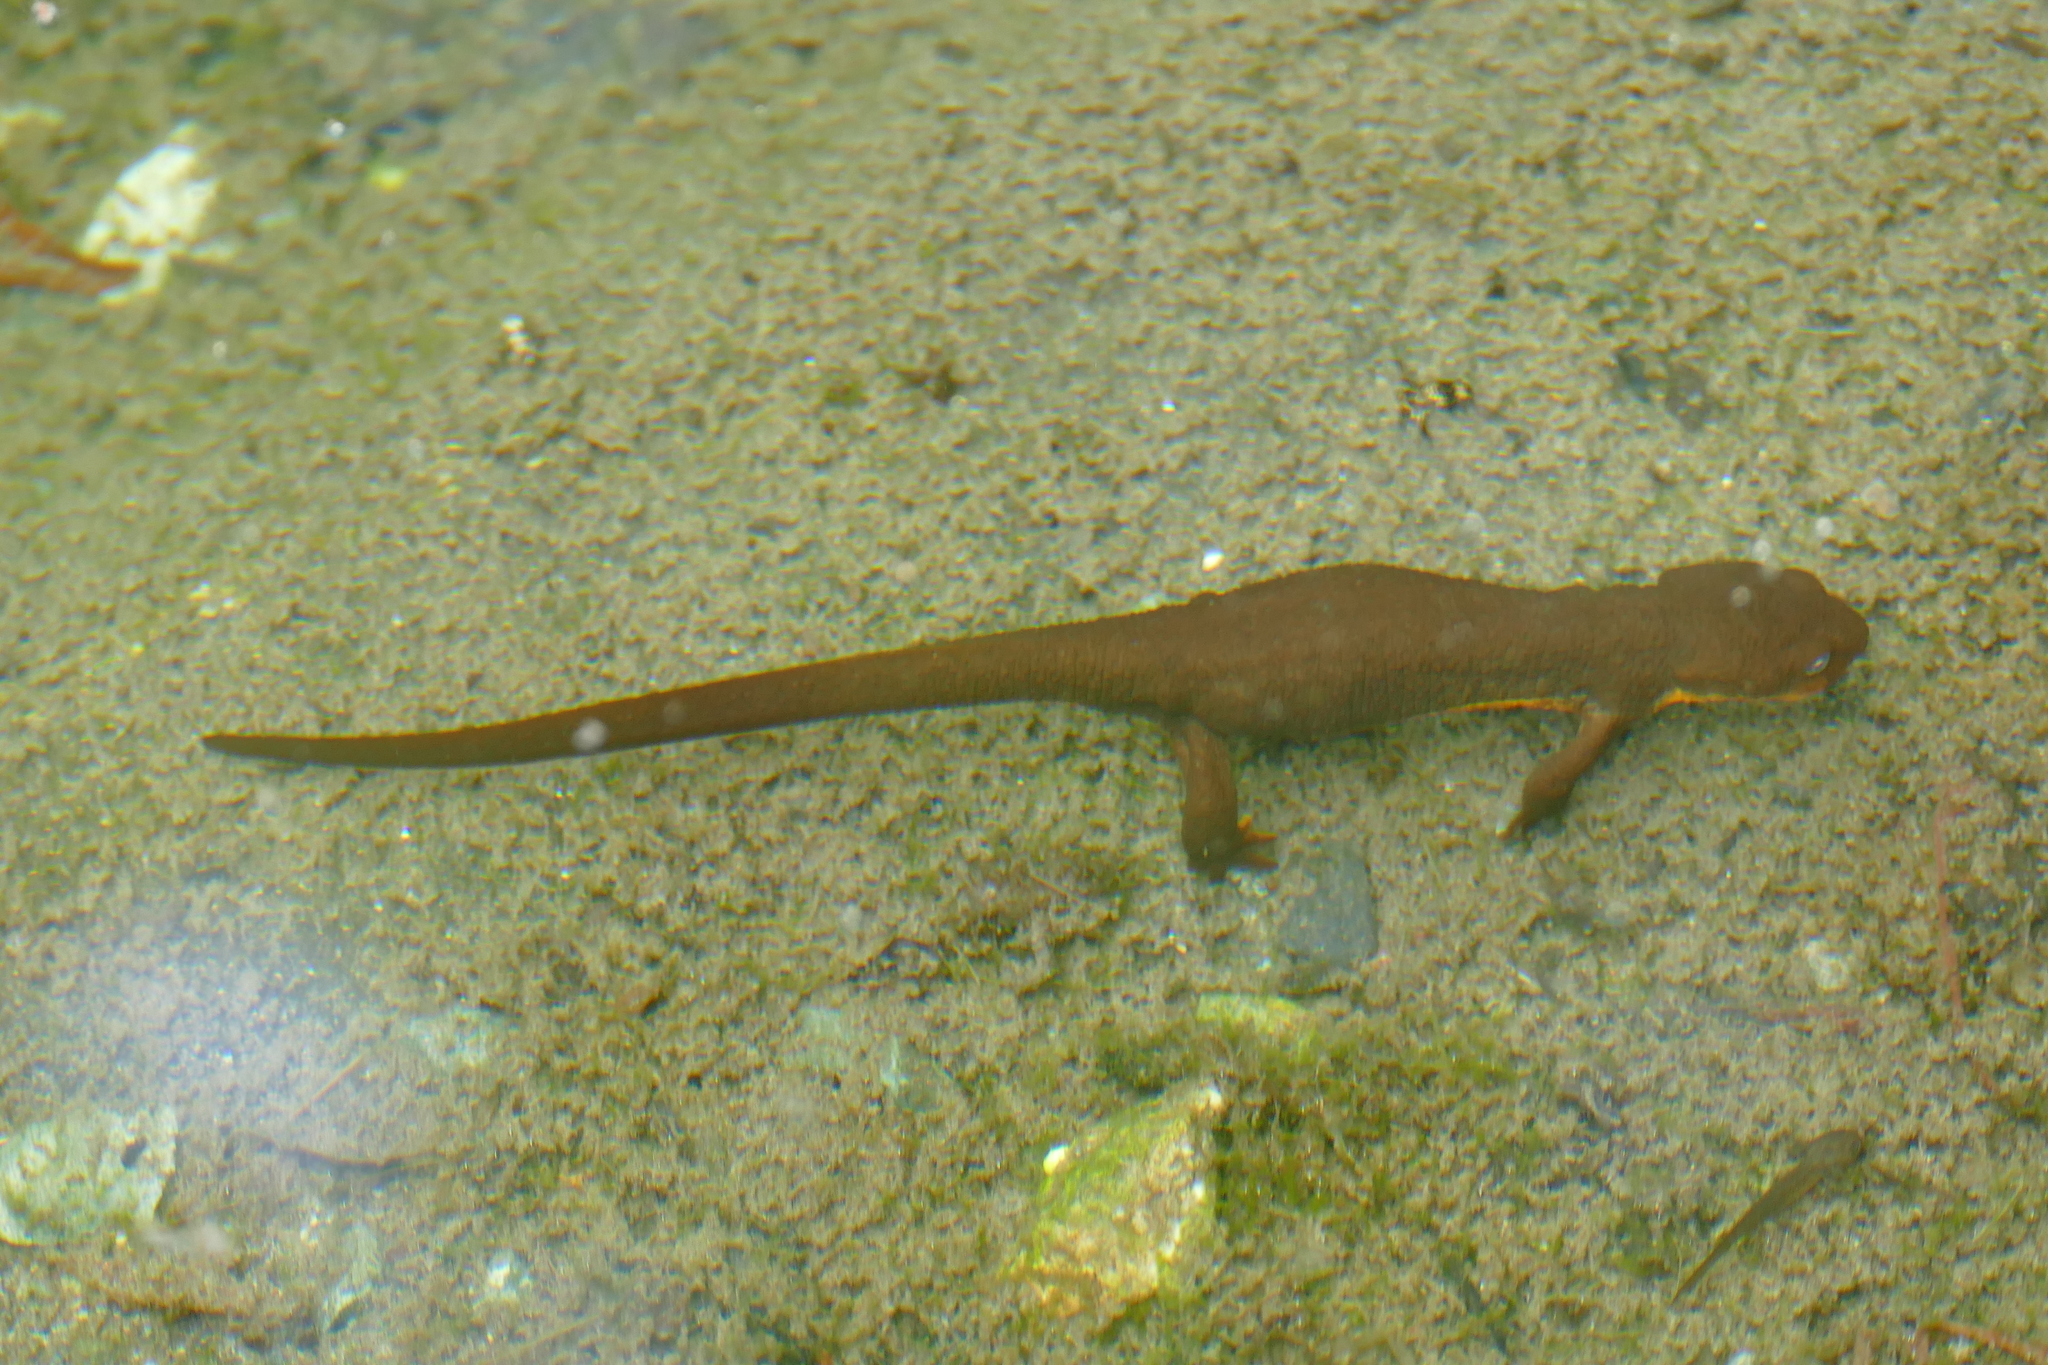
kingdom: Animalia
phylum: Chordata
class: Amphibia
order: Caudata
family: Salamandridae
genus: Taricha
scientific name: Taricha granulosa
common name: Roughskin newt
